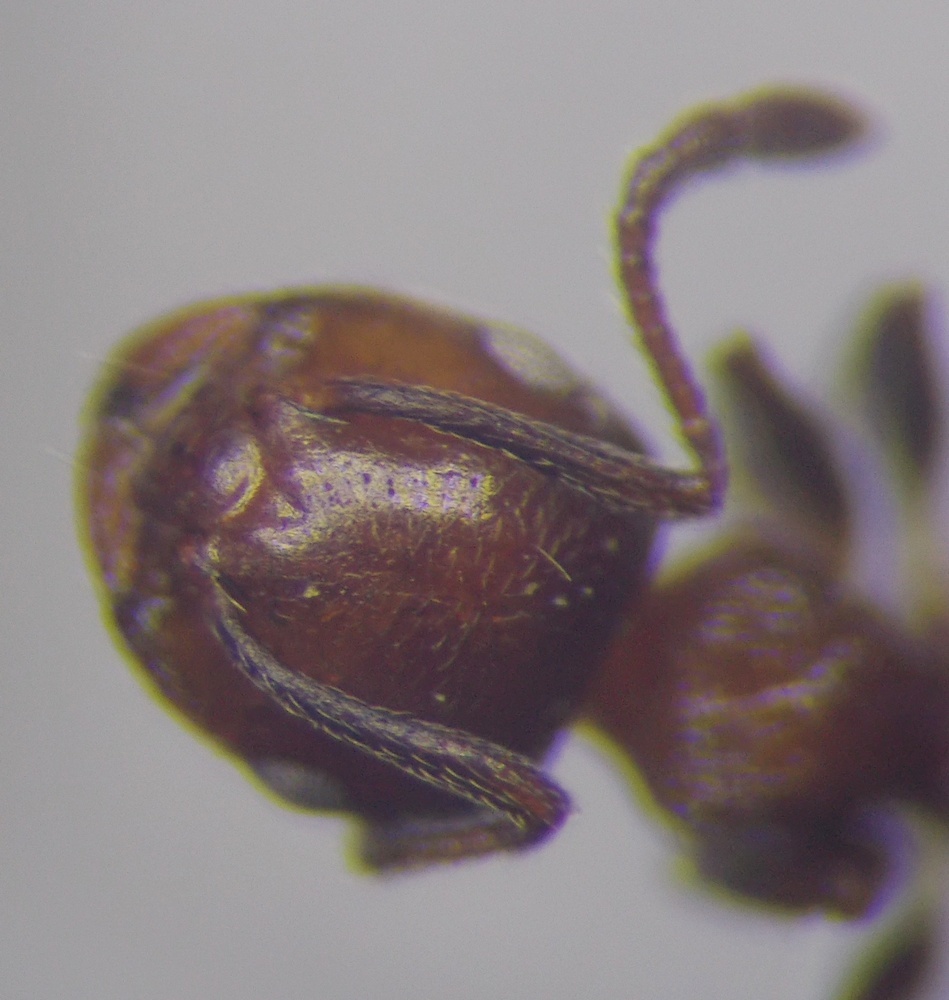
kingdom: Animalia
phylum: Arthropoda
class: Insecta
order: Hymenoptera
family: Formicidae
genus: Crematogaster
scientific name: Crematogaster schmidti
